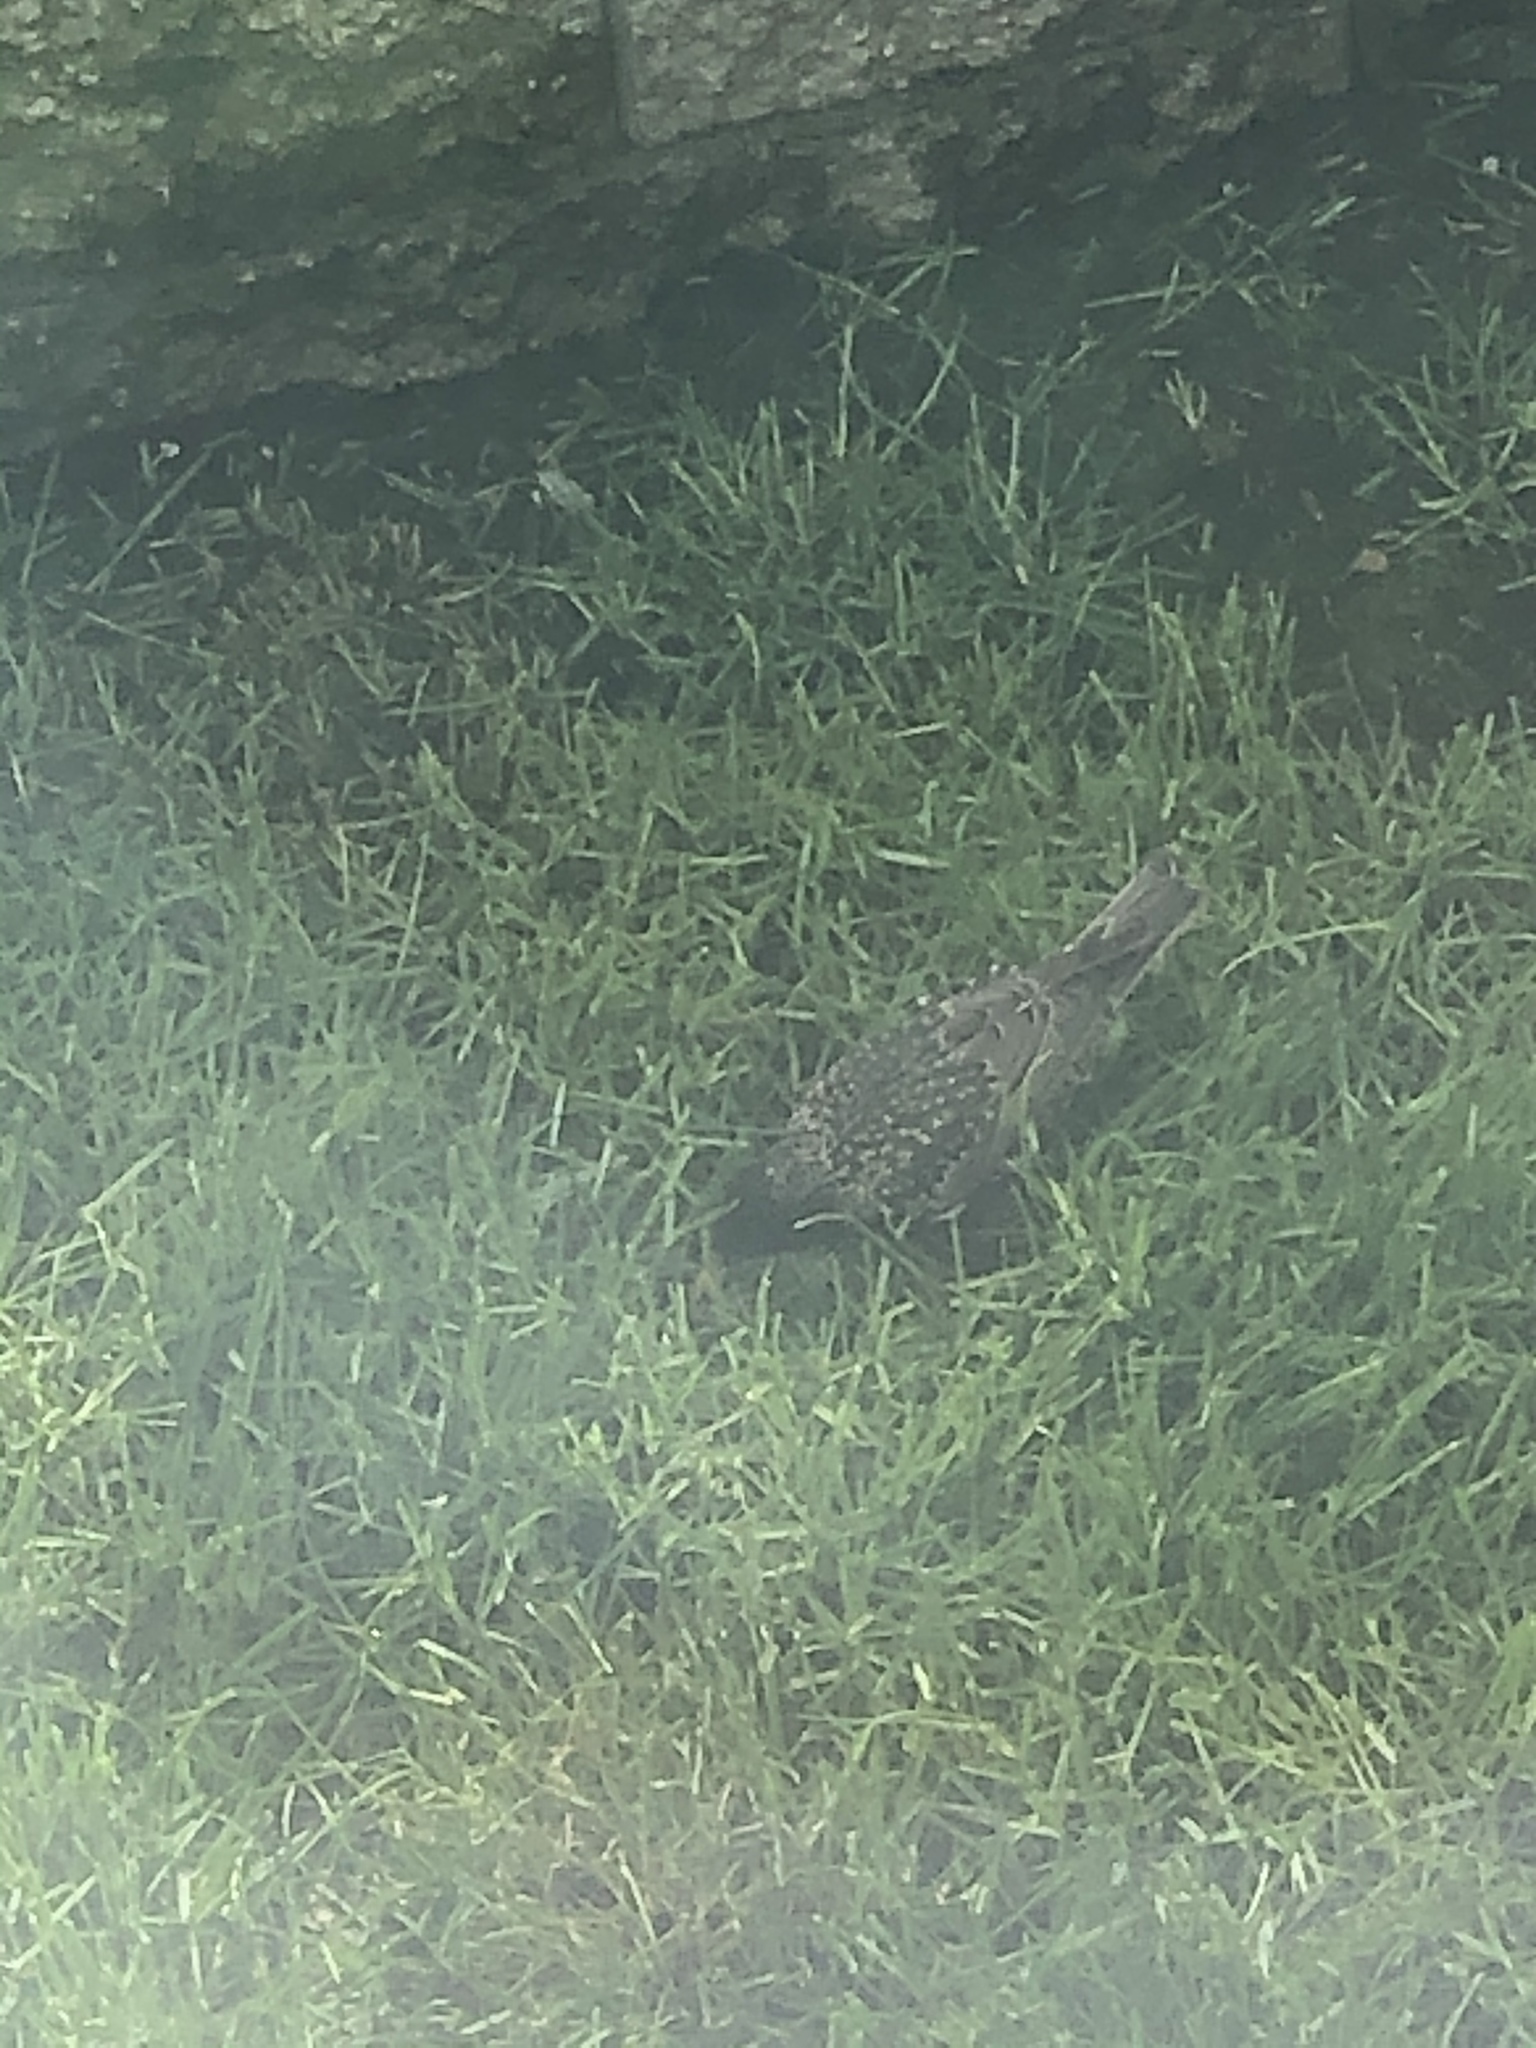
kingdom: Animalia
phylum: Chordata
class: Aves
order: Passeriformes
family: Sturnidae
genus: Sturnus
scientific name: Sturnus vulgaris
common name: Common starling
